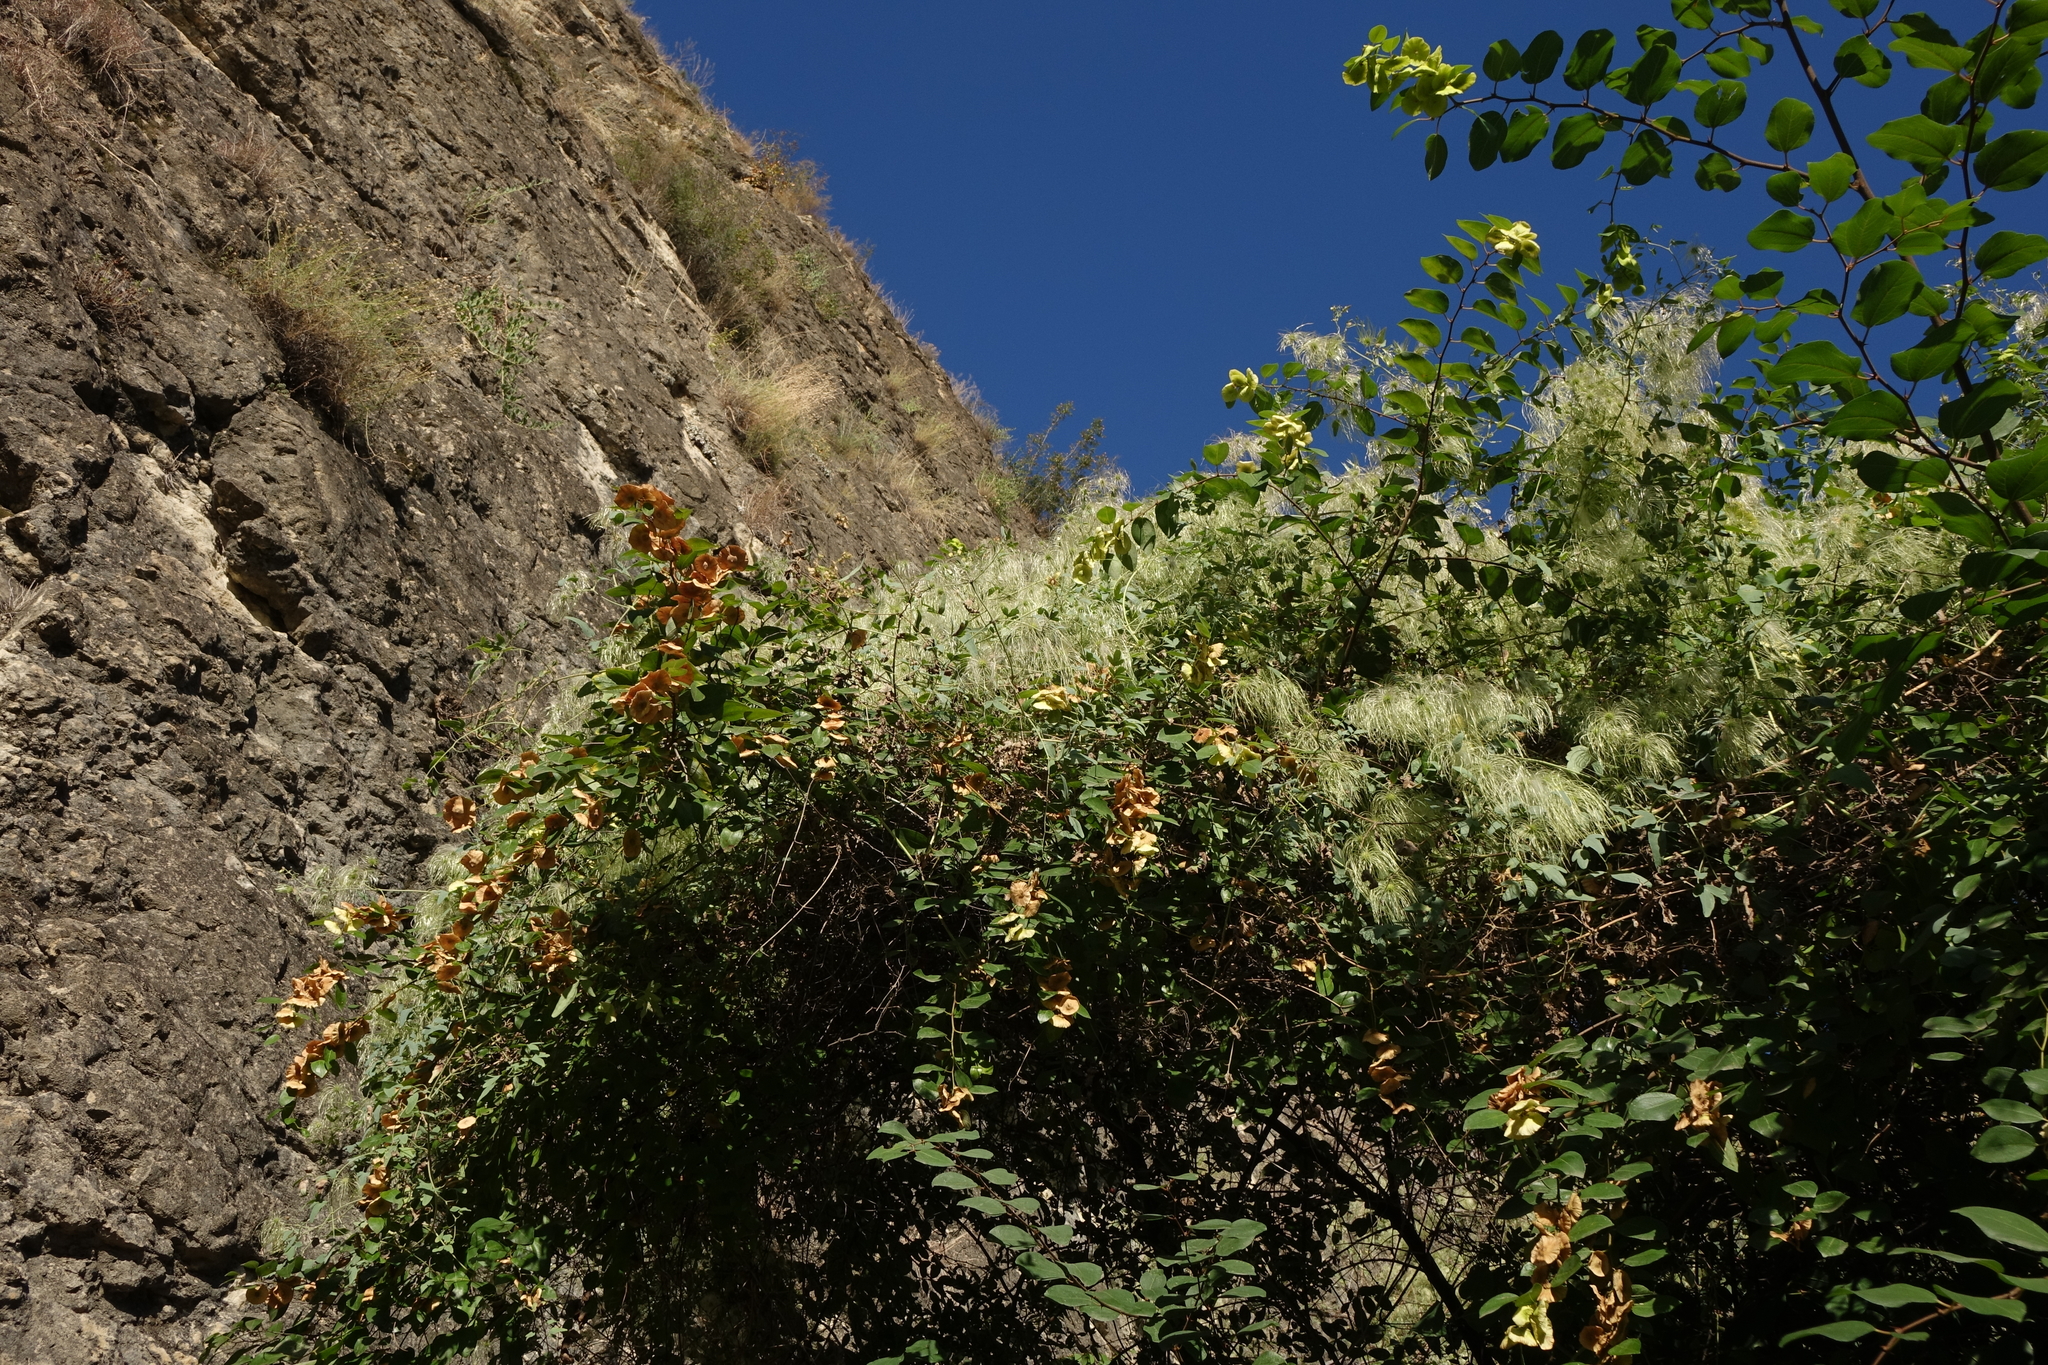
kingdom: Plantae
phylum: Tracheophyta
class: Magnoliopsida
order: Ranunculales
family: Ranunculaceae
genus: Clematis
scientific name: Clematis orientalis
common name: Oriental virgin's-bower
